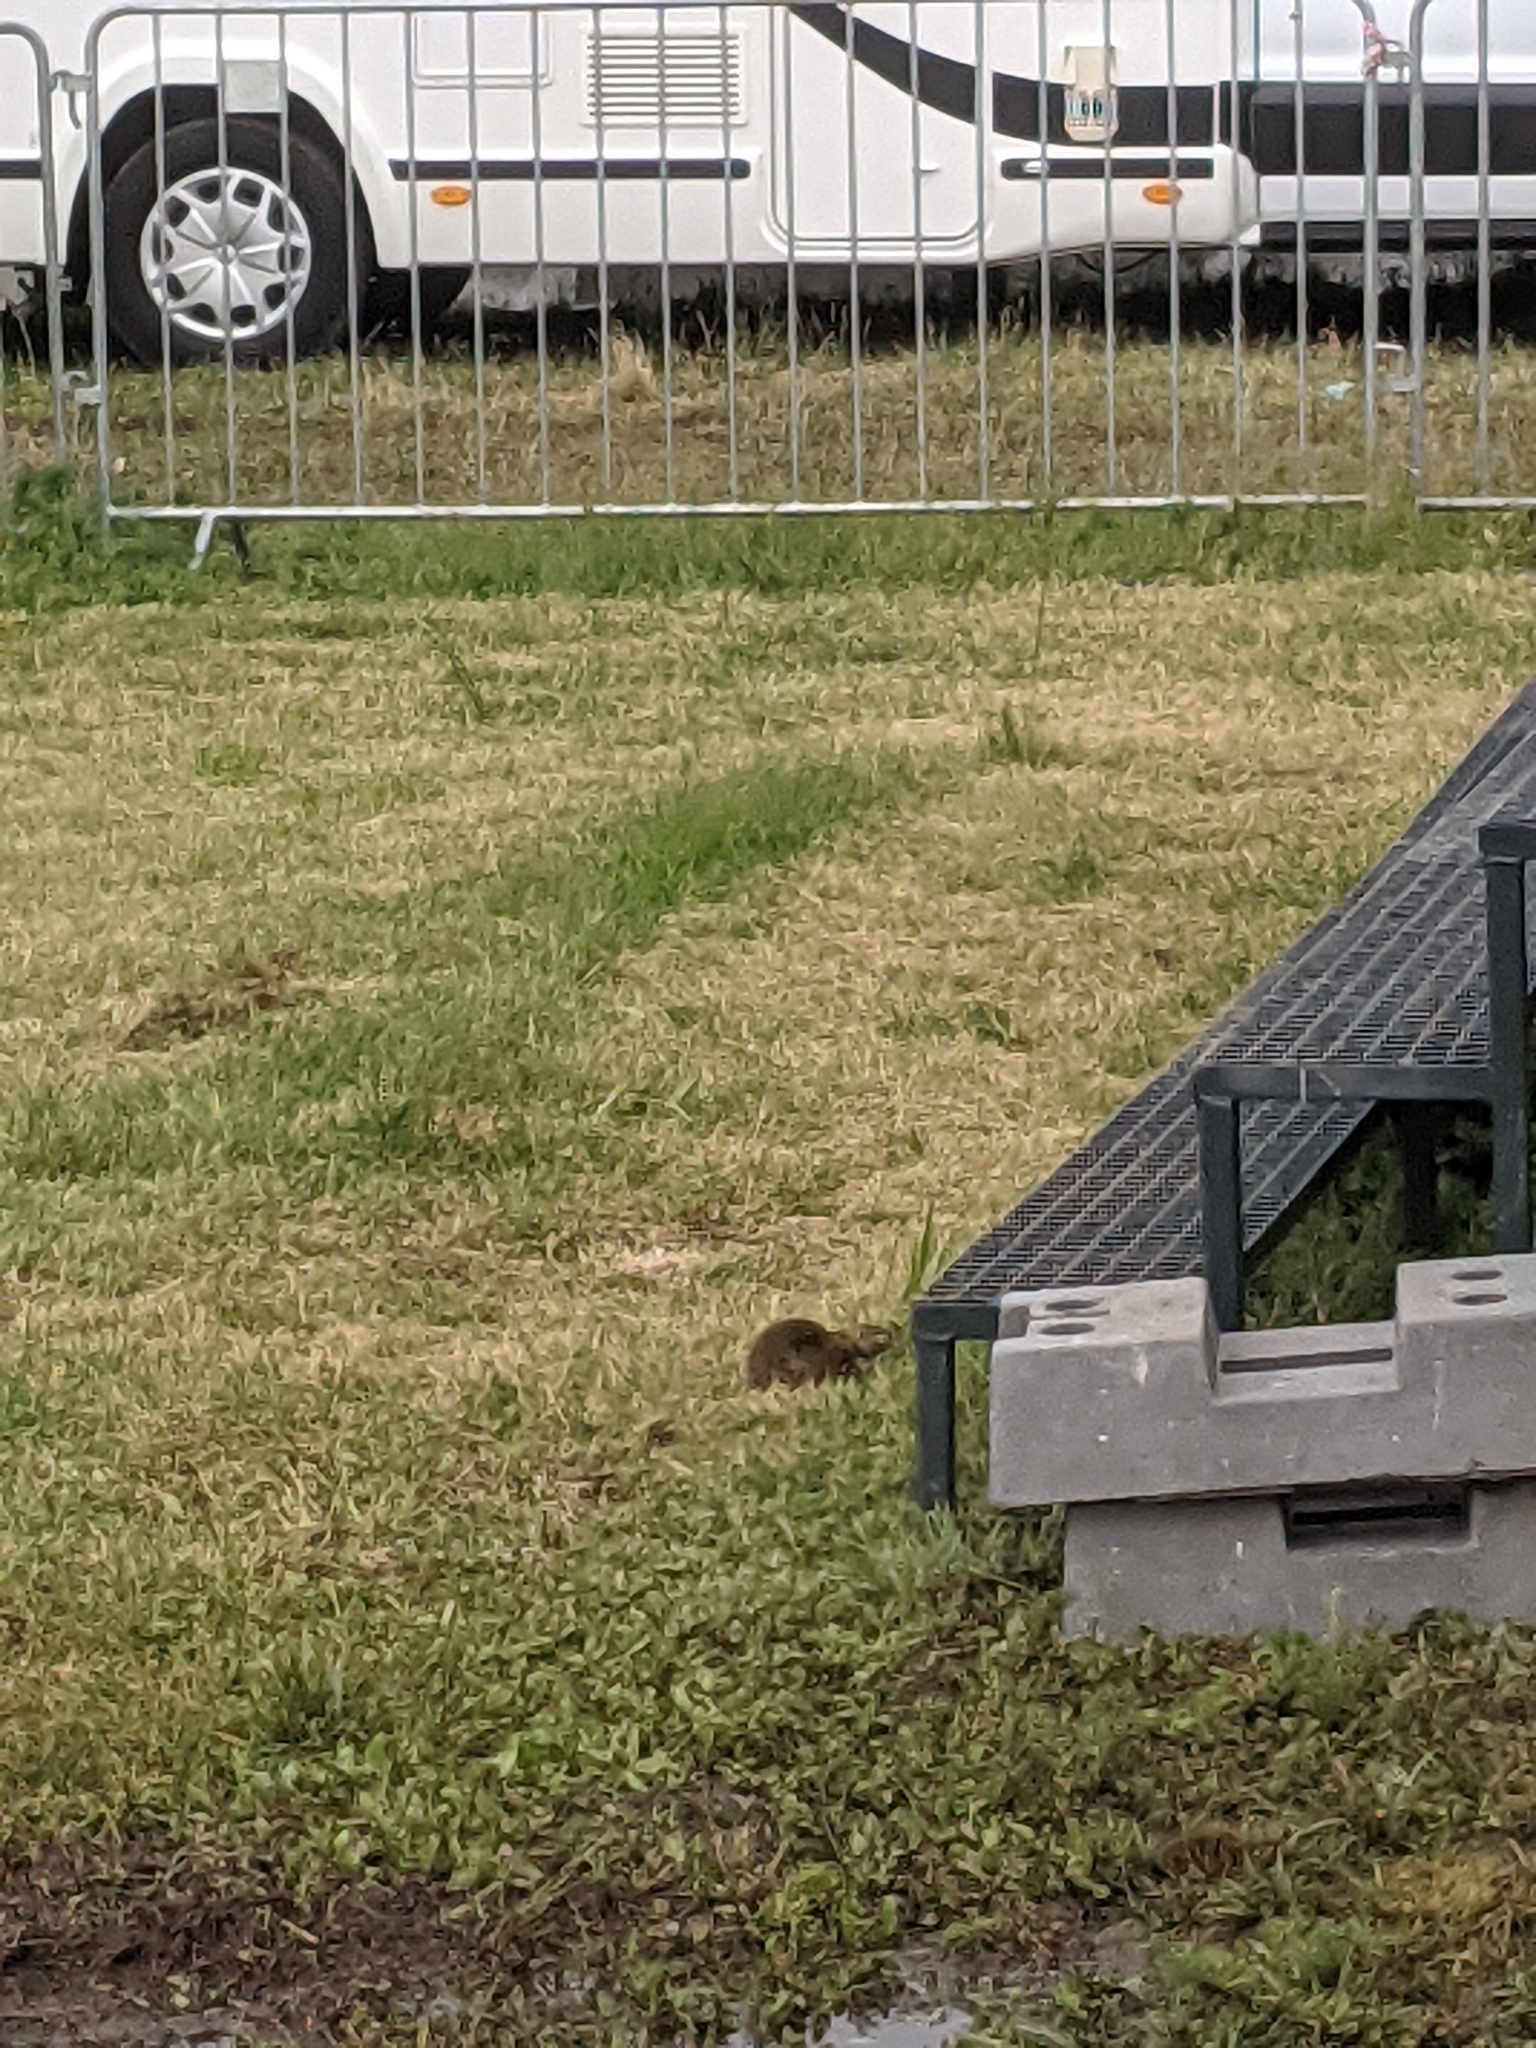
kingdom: Animalia
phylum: Chordata
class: Mammalia
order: Rodentia
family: Sciuridae
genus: Spermophilus
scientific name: Spermophilus citellus
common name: European ground squirrel
